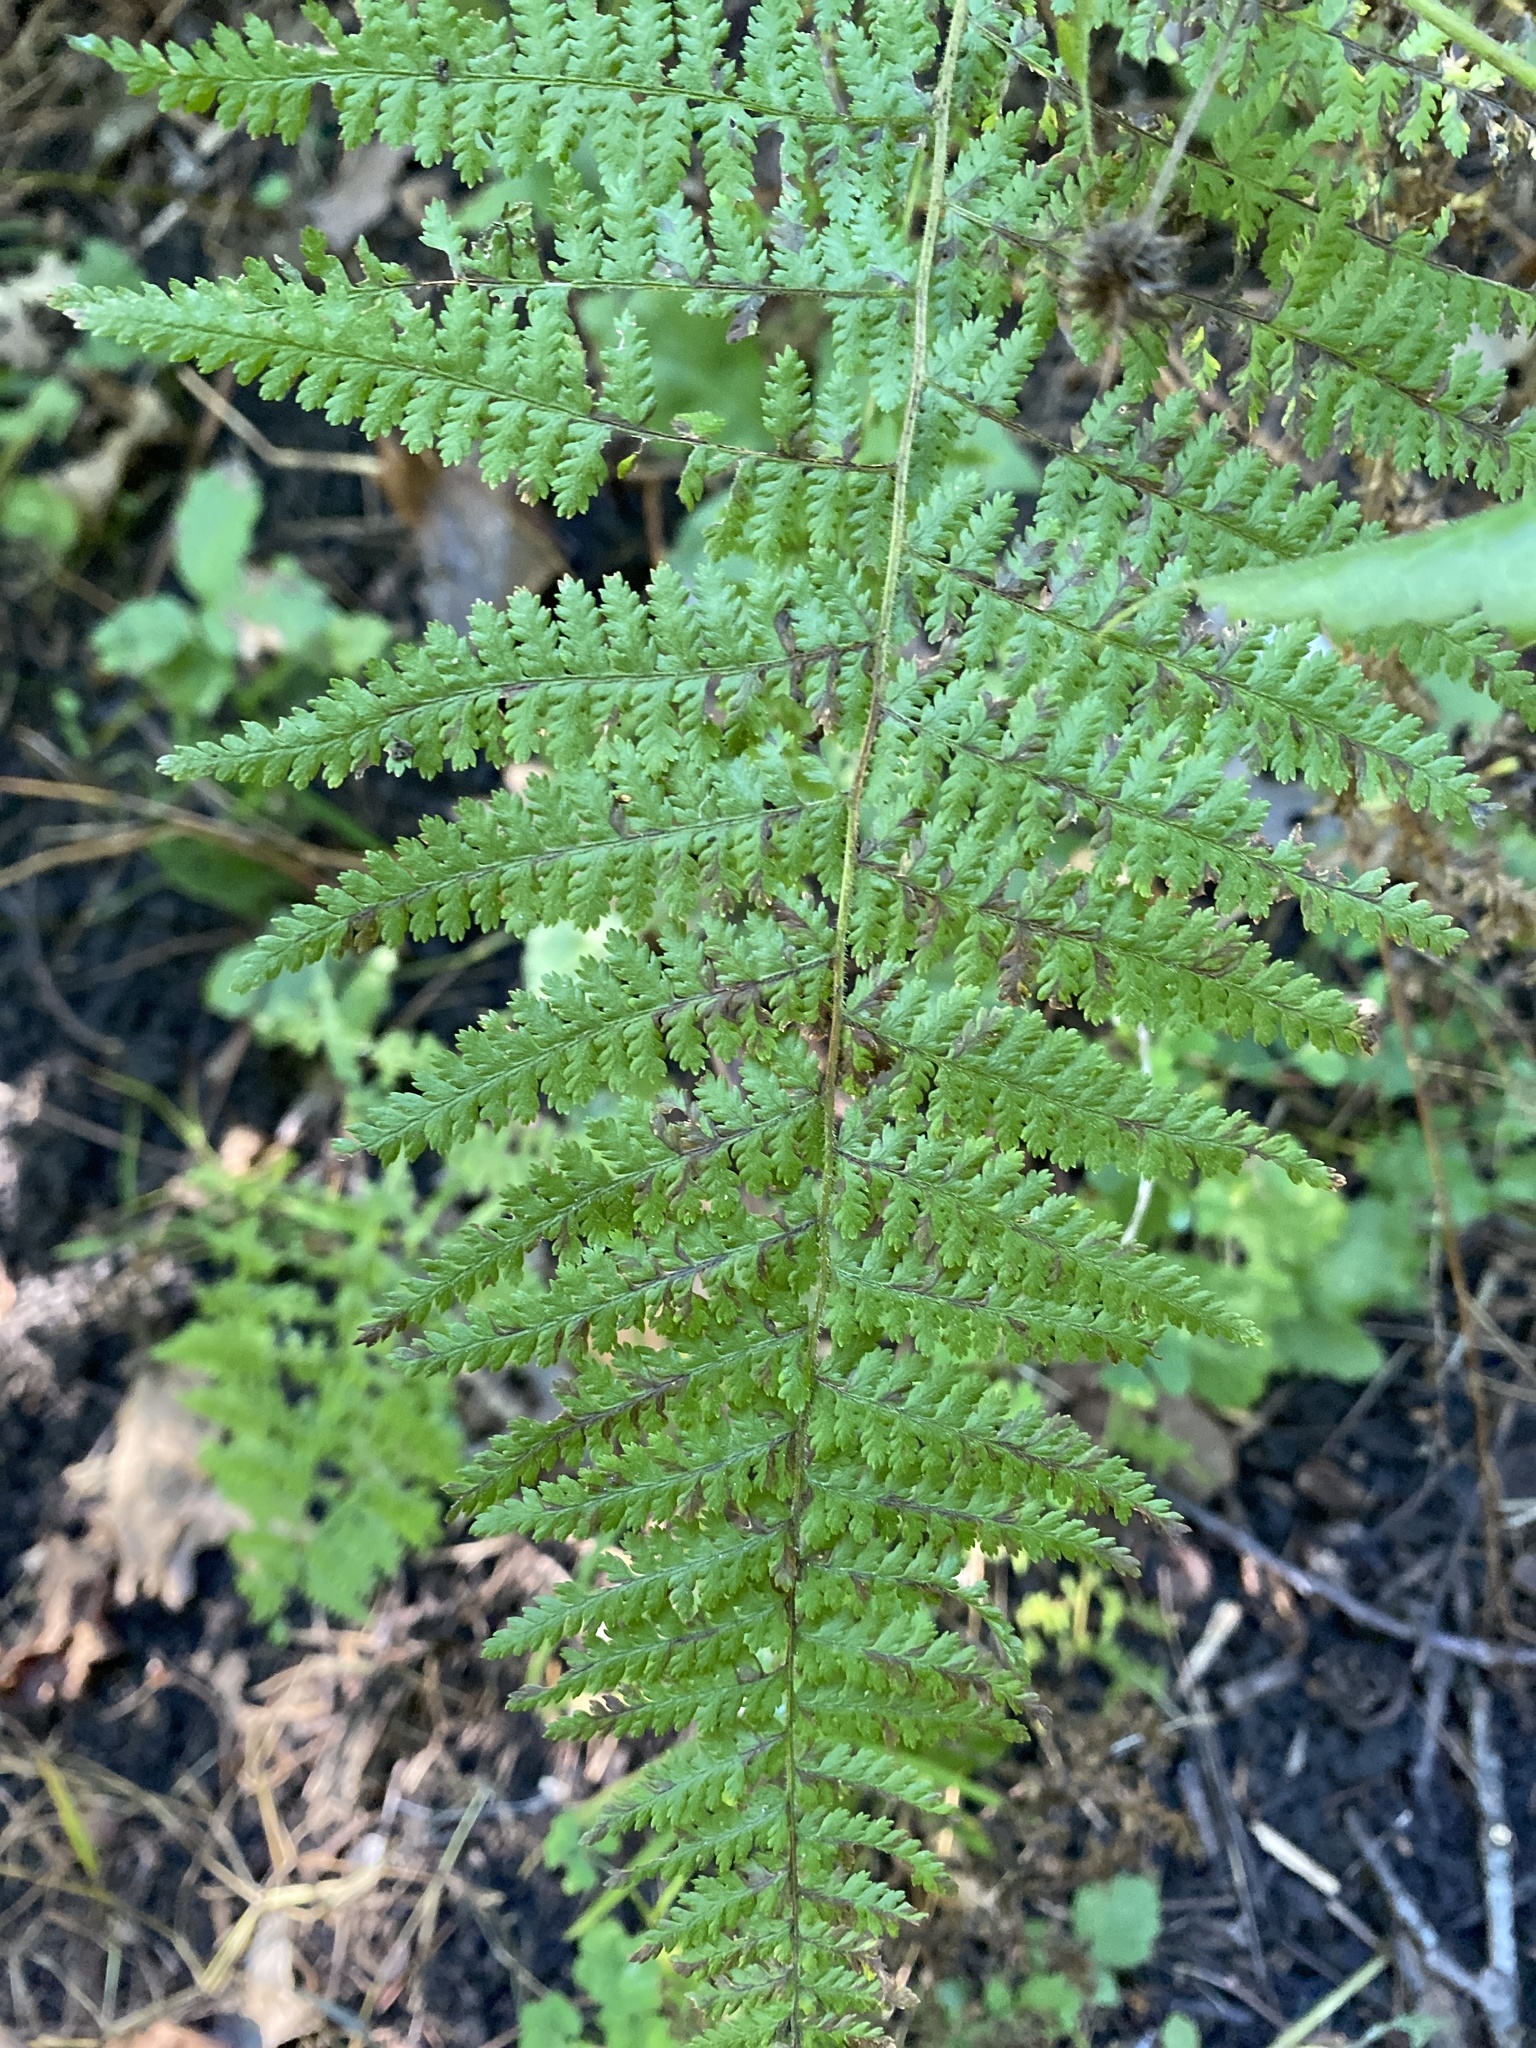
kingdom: Plantae
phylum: Tracheophyta
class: Polypodiopsida
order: Polypodiales
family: Dennstaedtiaceae
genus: Sitobolium
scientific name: Sitobolium punctilobum
